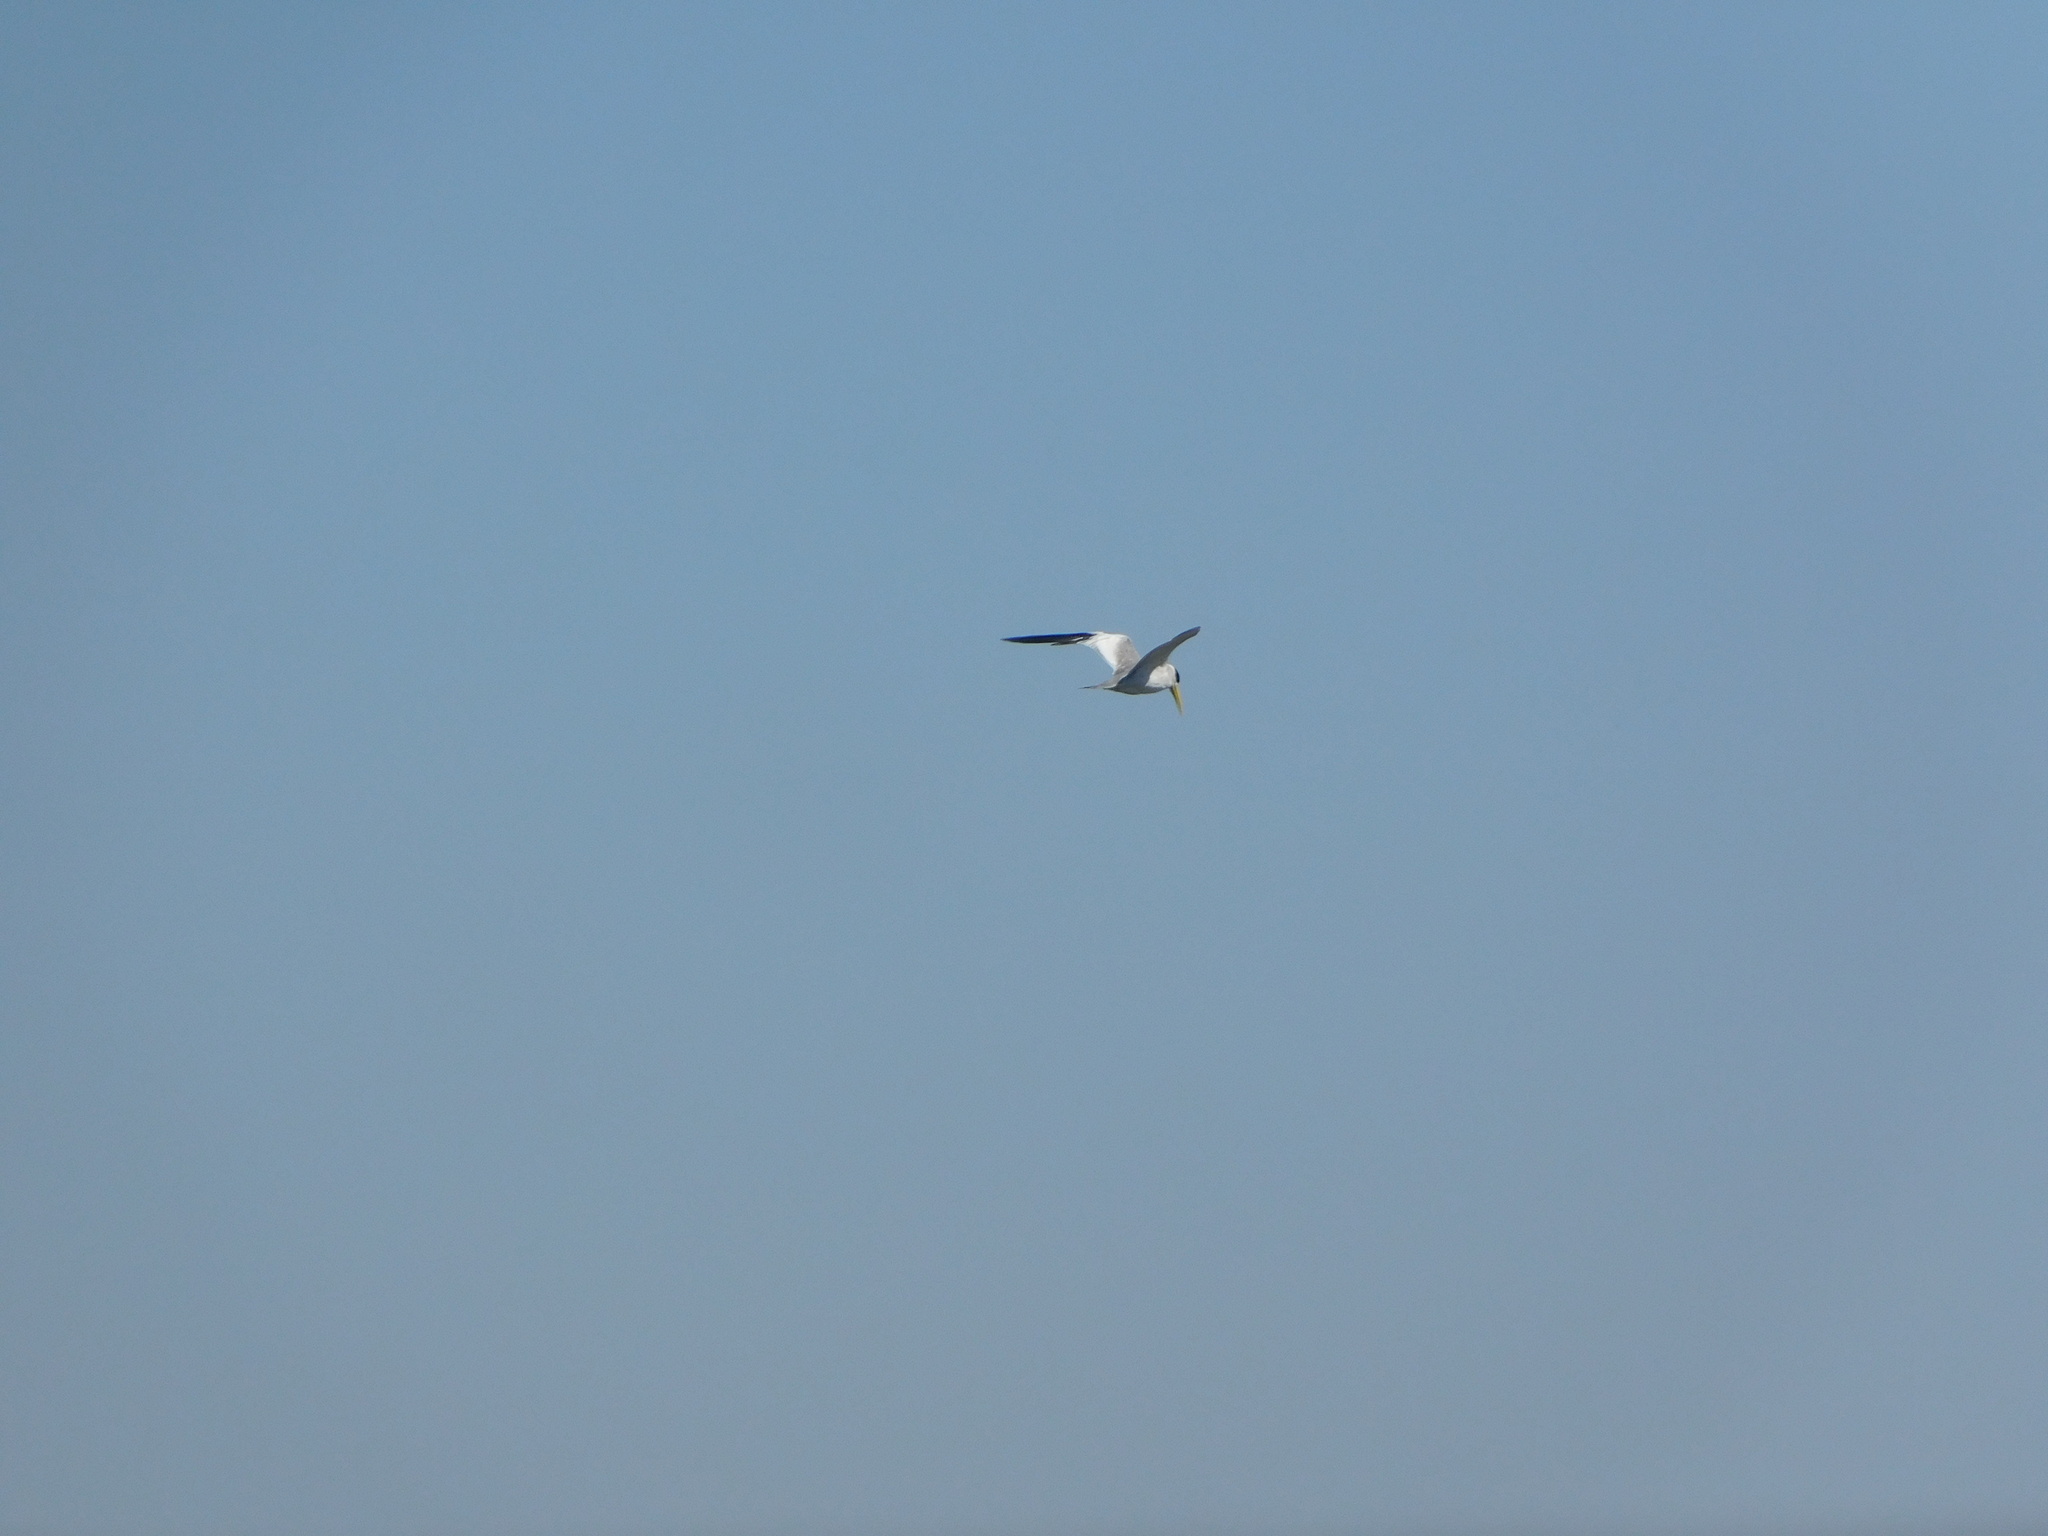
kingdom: Animalia
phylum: Chordata
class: Aves
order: Charadriiformes
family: Laridae
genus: Phaetusa
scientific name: Phaetusa simplex
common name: Large-billed tern
